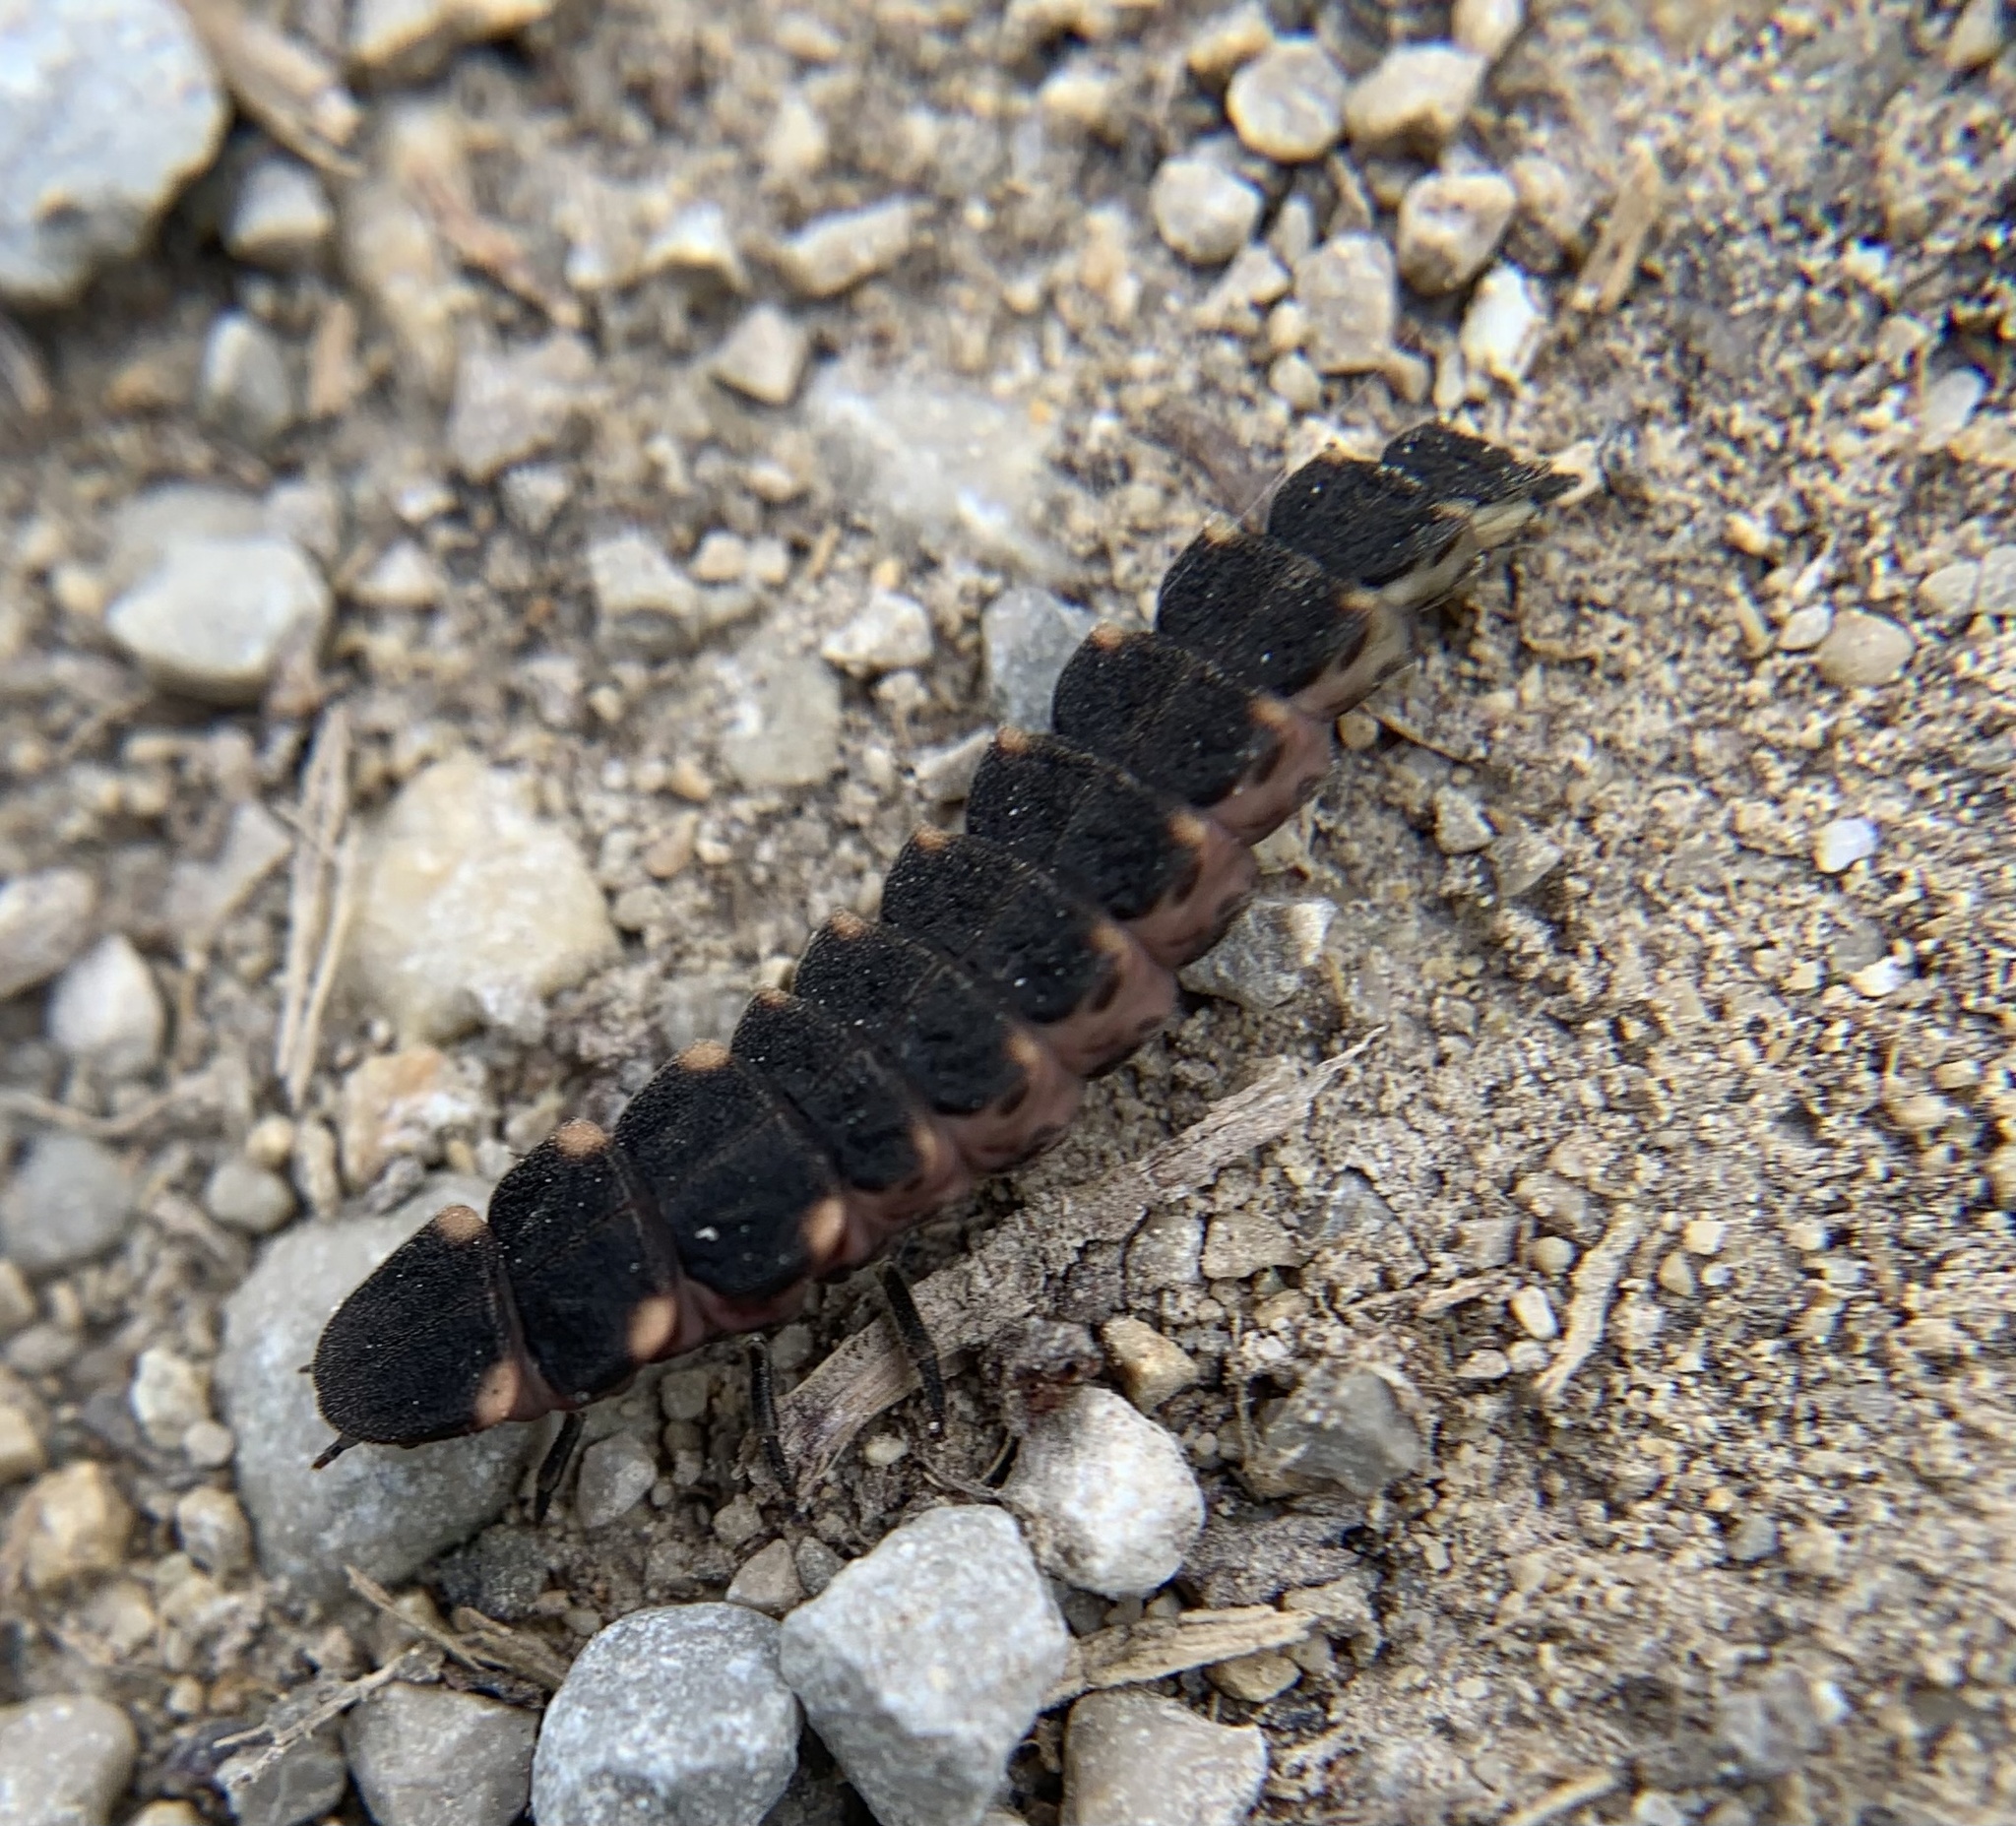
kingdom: Animalia
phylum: Arthropoda
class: Insecta
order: Coleoptera
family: Lampyridae
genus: Lampyris
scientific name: Lampyris noctiluca
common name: Glow-worm
